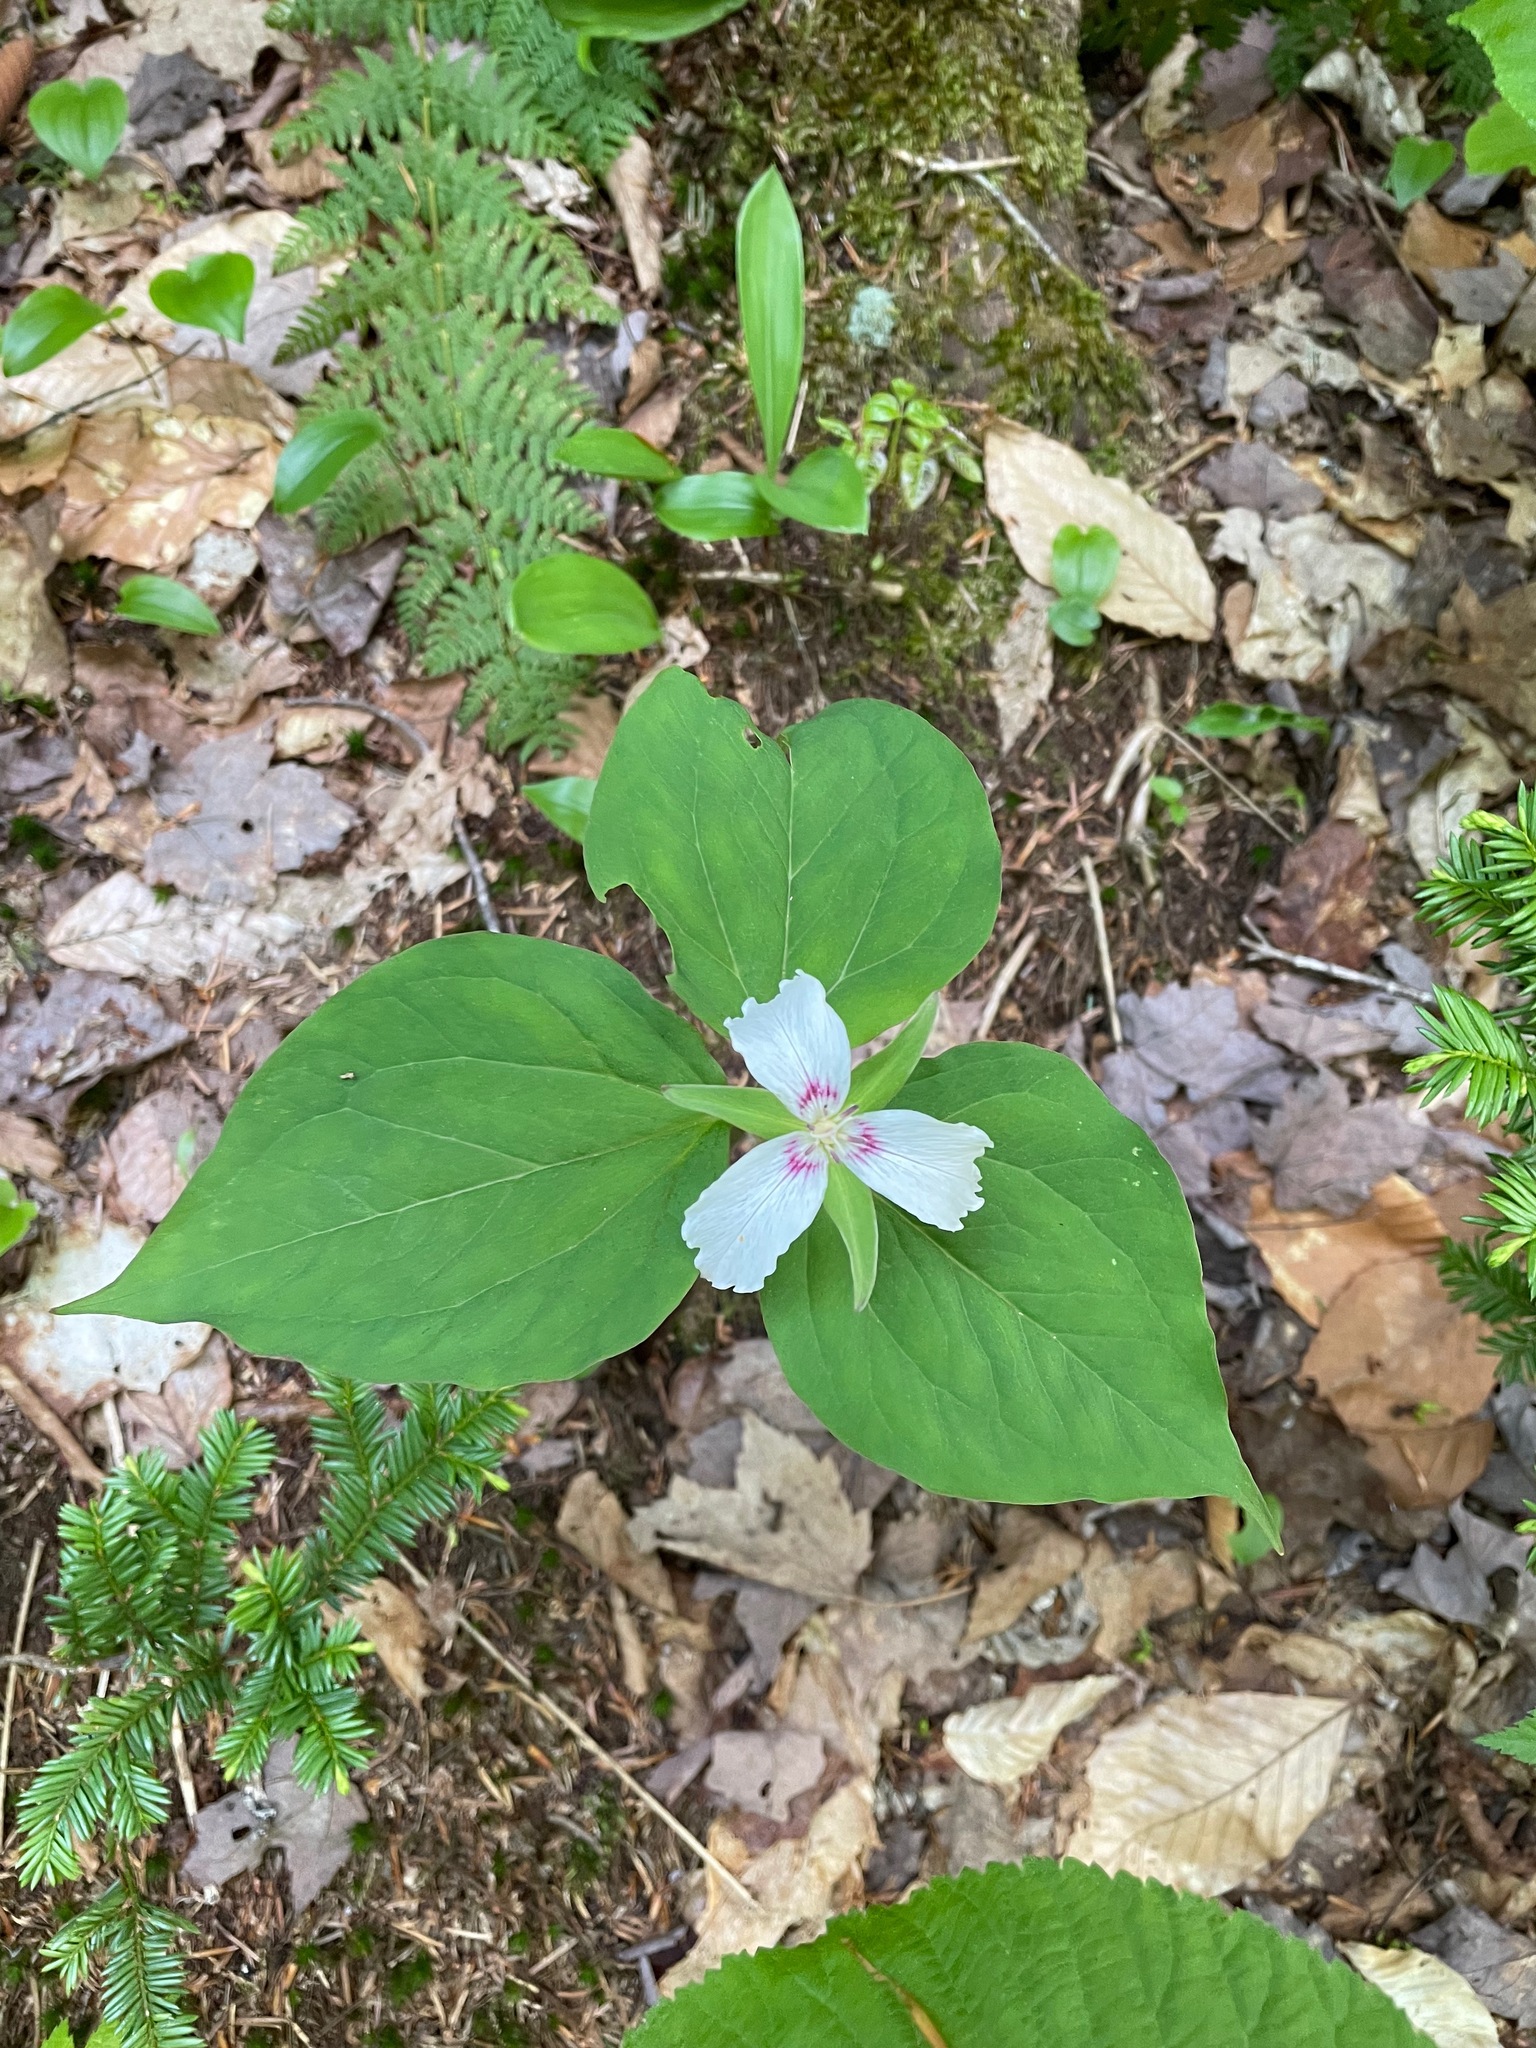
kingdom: Plantae
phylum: Tracheophyta
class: Liliopsida
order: Liliales
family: Melanthiaceae
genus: Trillium
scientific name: Trillium undulatum
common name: Paint trillium
